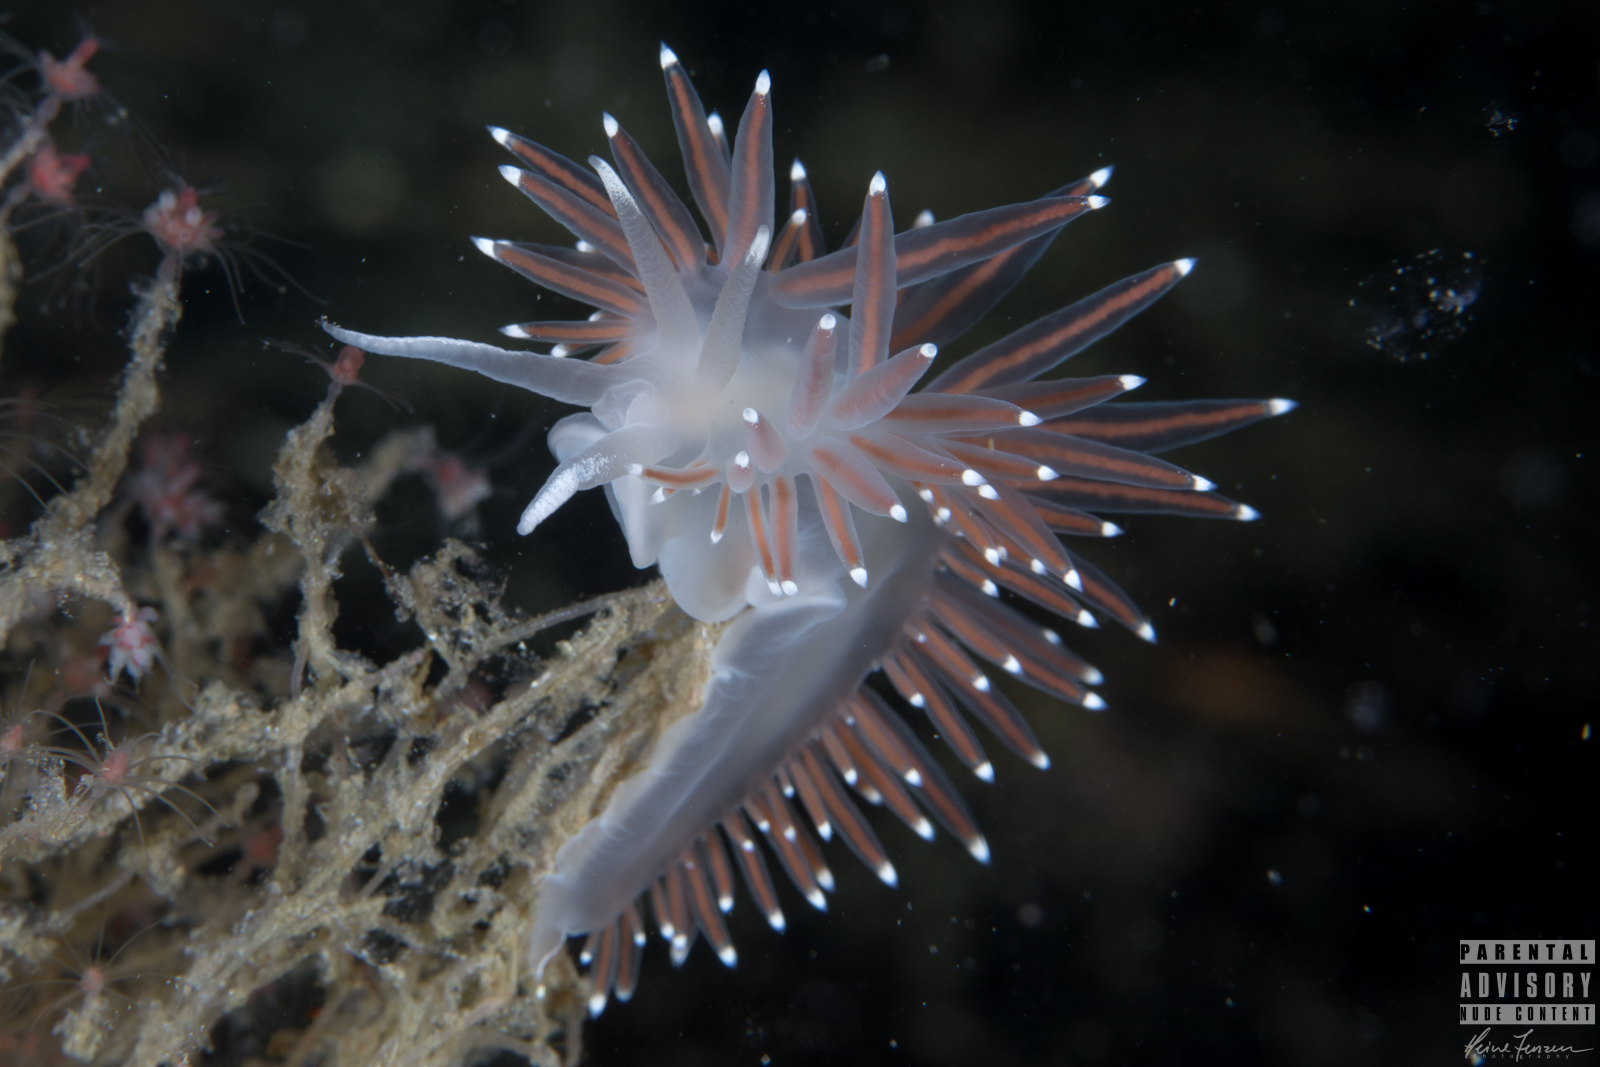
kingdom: Animalia
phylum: Mollusca
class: Gastropoda
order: Nudibranchia
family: Coryphellidae
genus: Coryphella
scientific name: Coryphella browni
